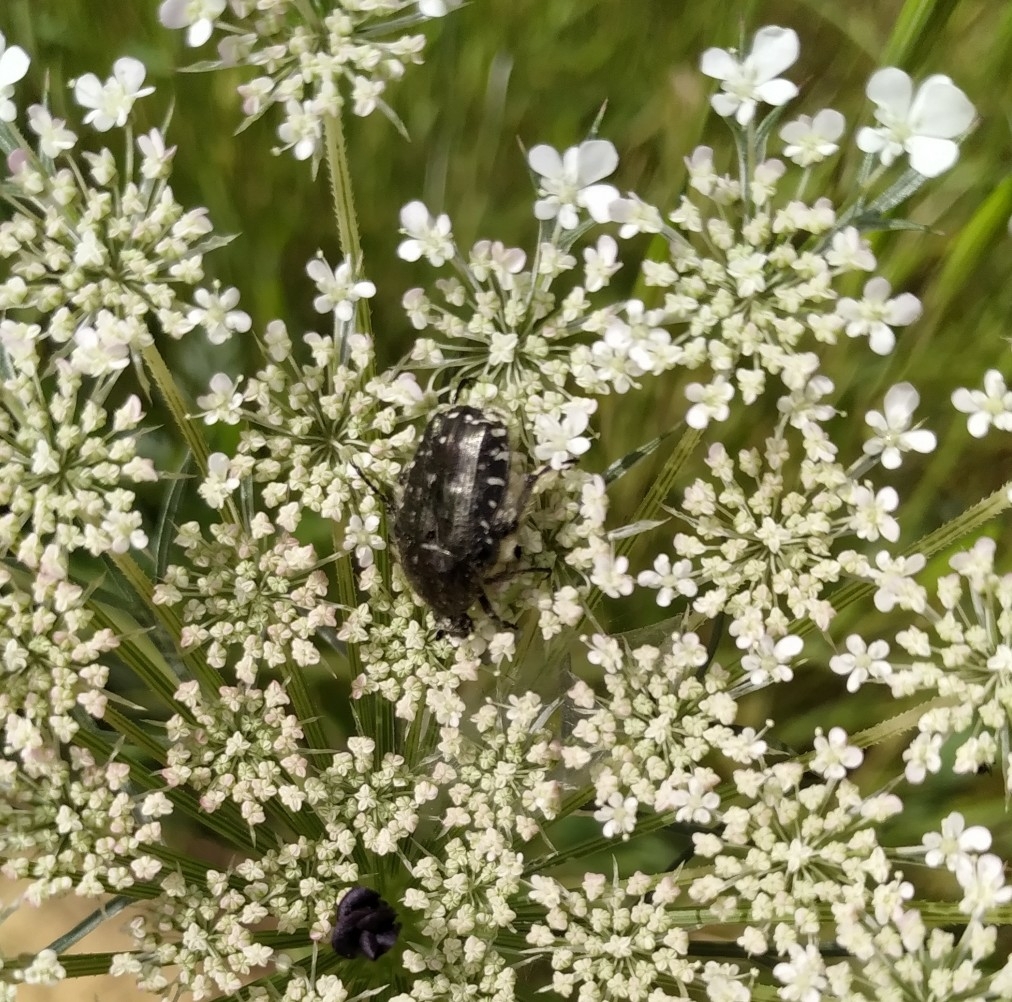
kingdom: Animalia
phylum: Arthropoda
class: Insecta
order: Coleoptera
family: Scarabaeidae
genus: Oxythyrea
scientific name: Oxythyrea funesta
